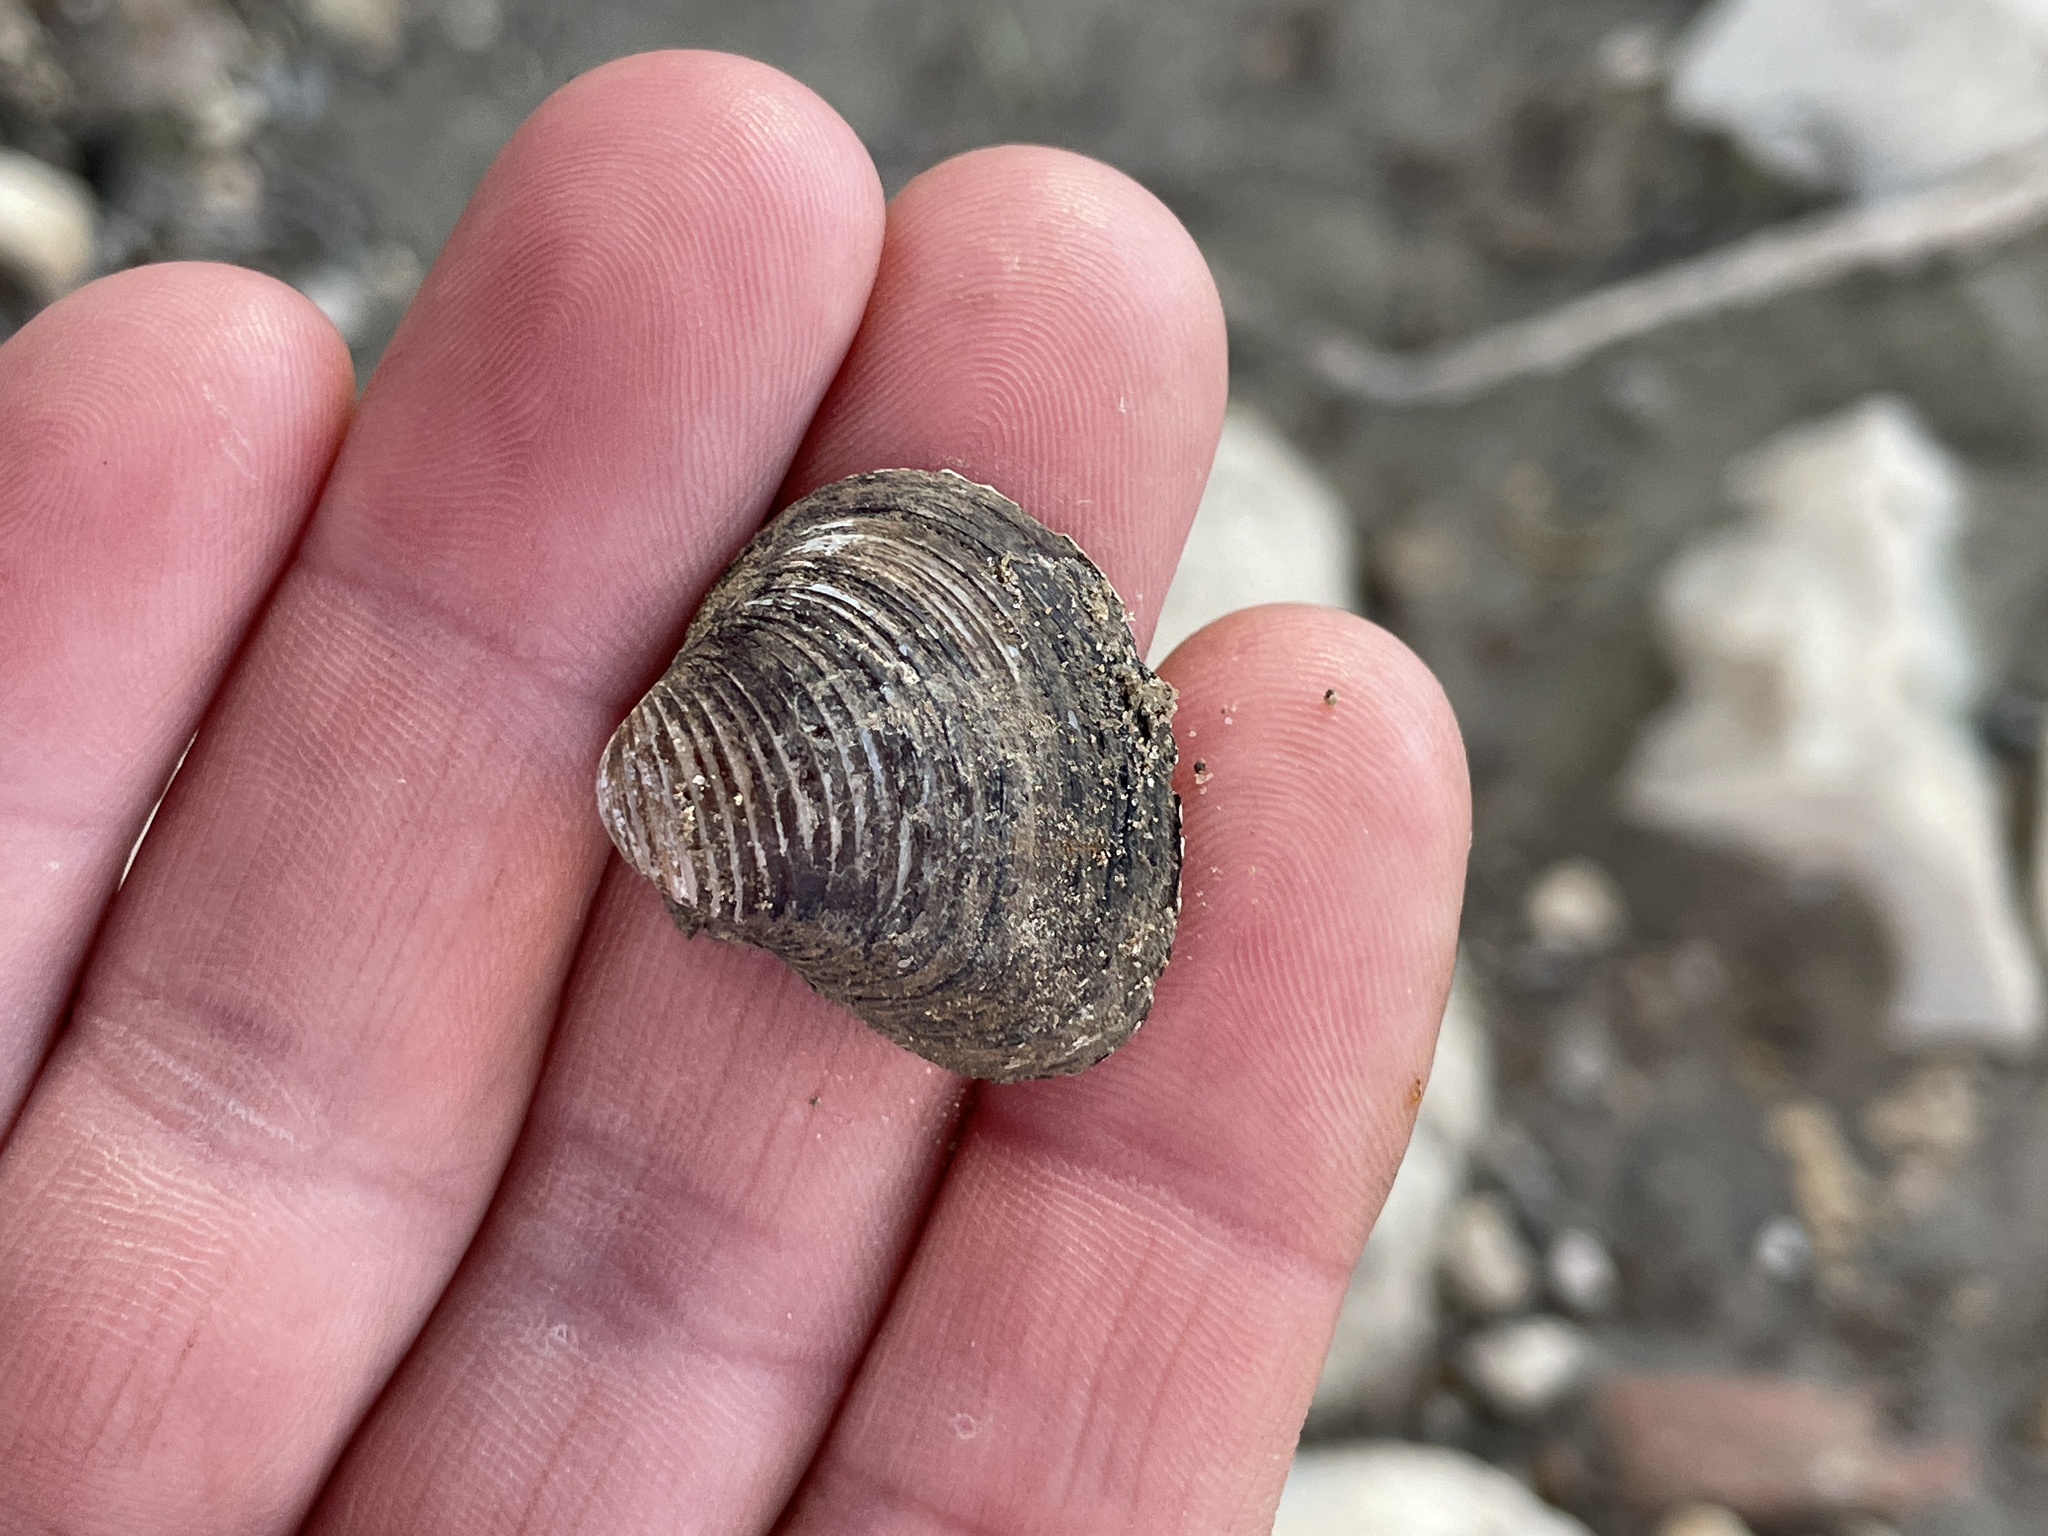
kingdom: Animalia
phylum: Mollusca
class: Bivalvia
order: Venerida
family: Cyrenidae
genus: Corbicula
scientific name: Corbicula fluminea
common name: Asian clam
